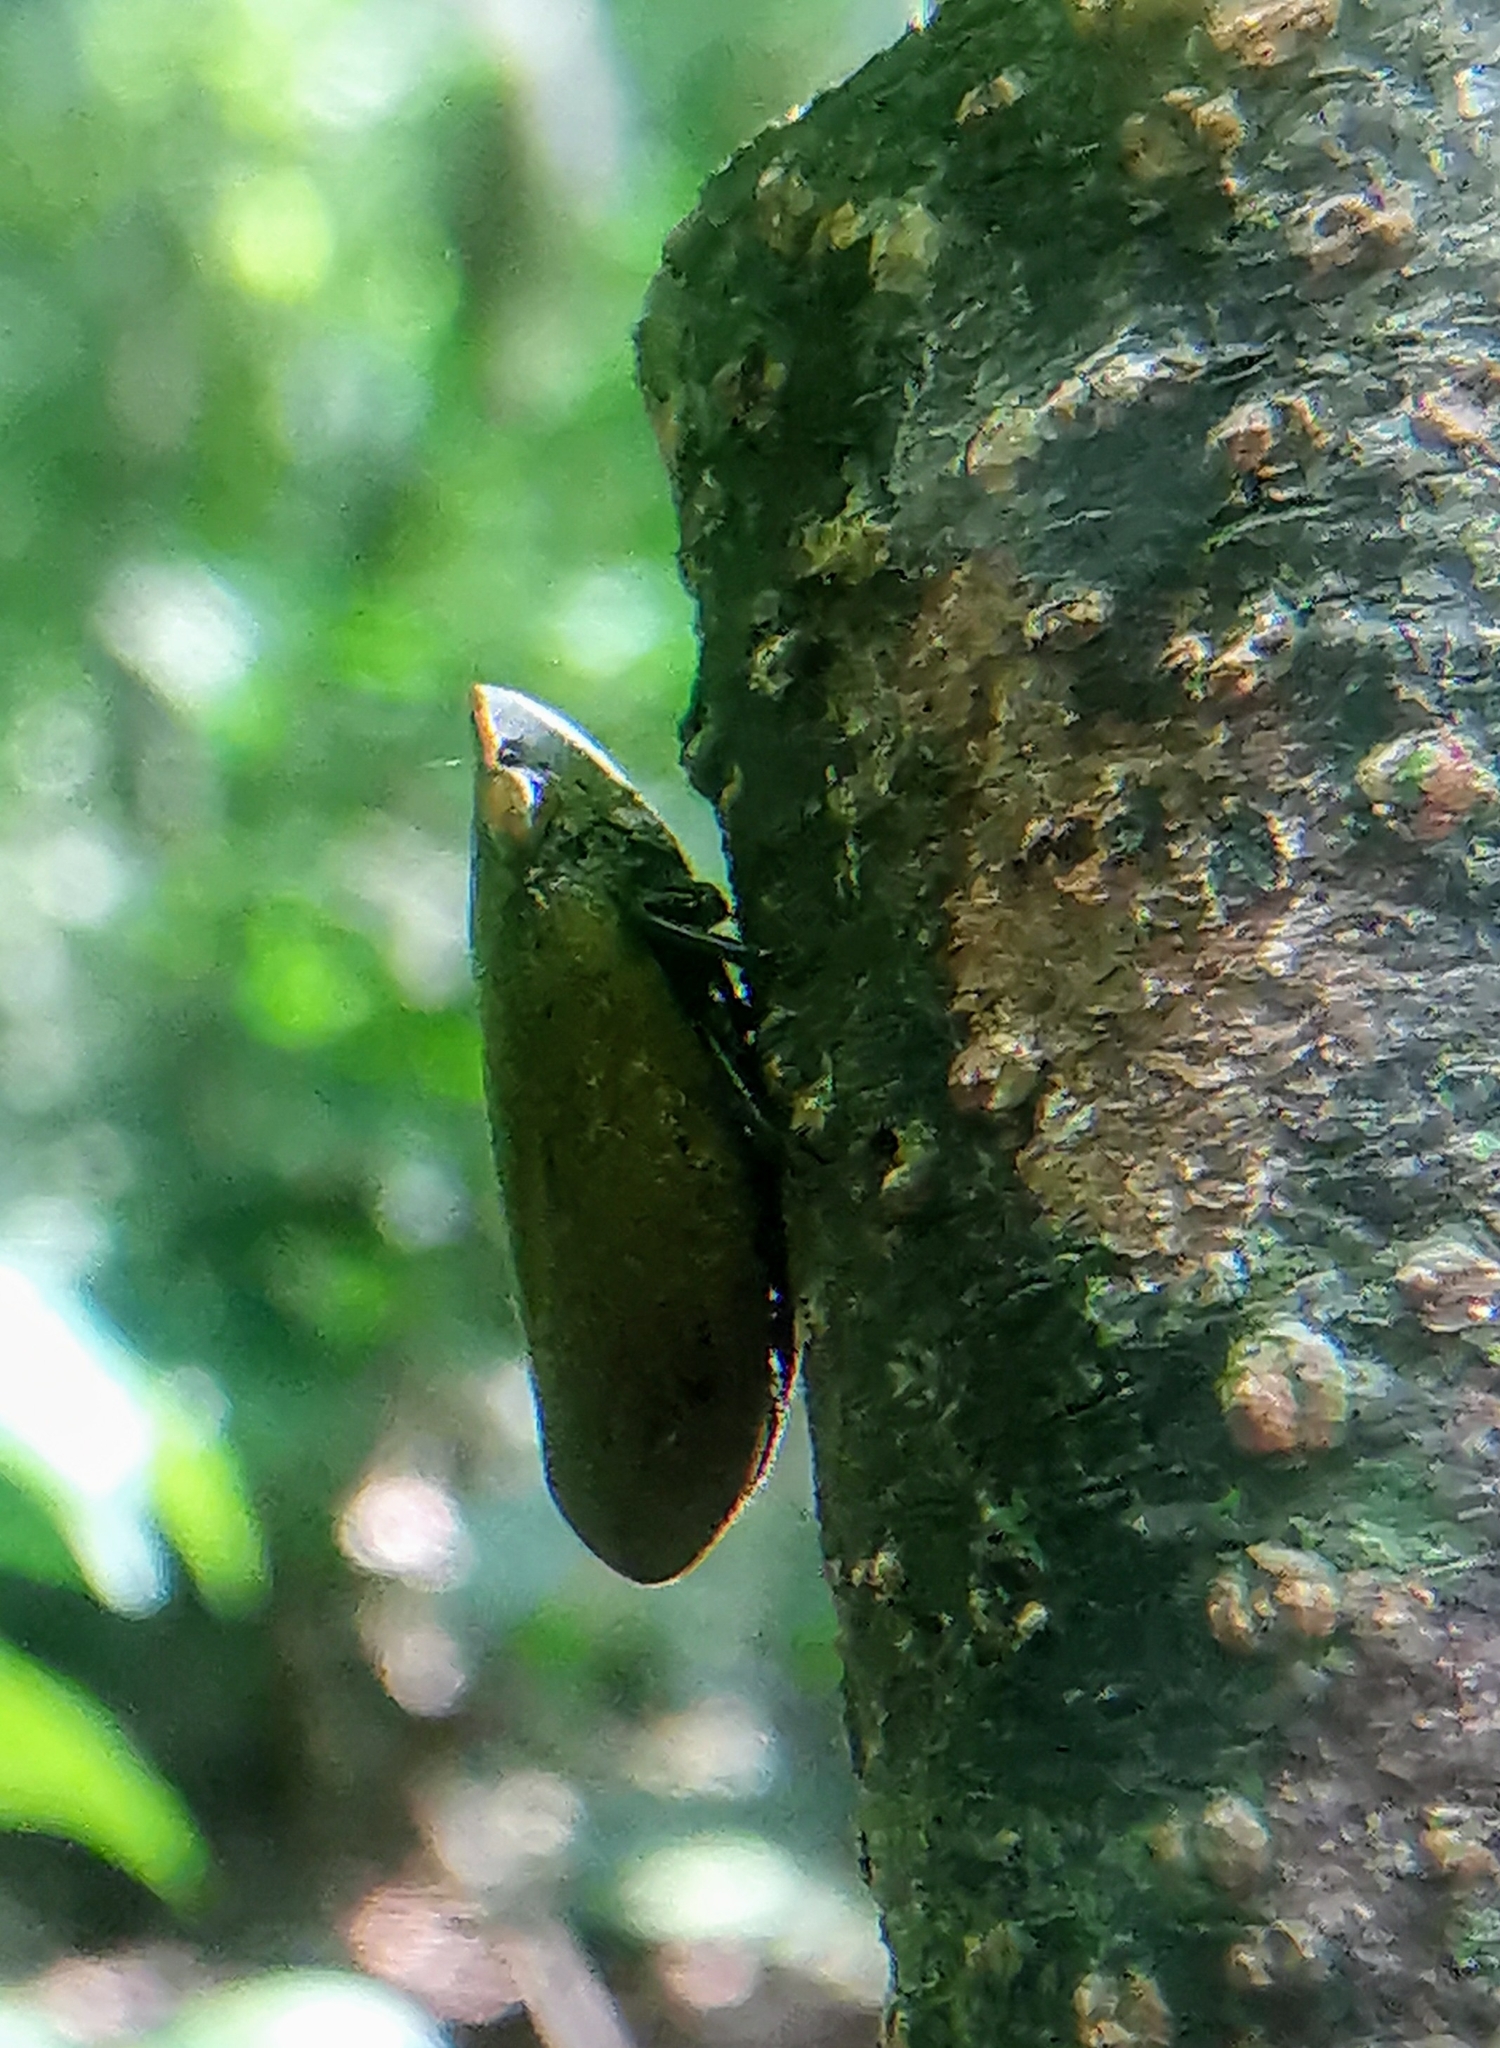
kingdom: Animalia
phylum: Arthropoda
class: Insecta
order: Hemiptera
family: Aphrophoridae
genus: Plinia
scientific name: Plinia ampla
